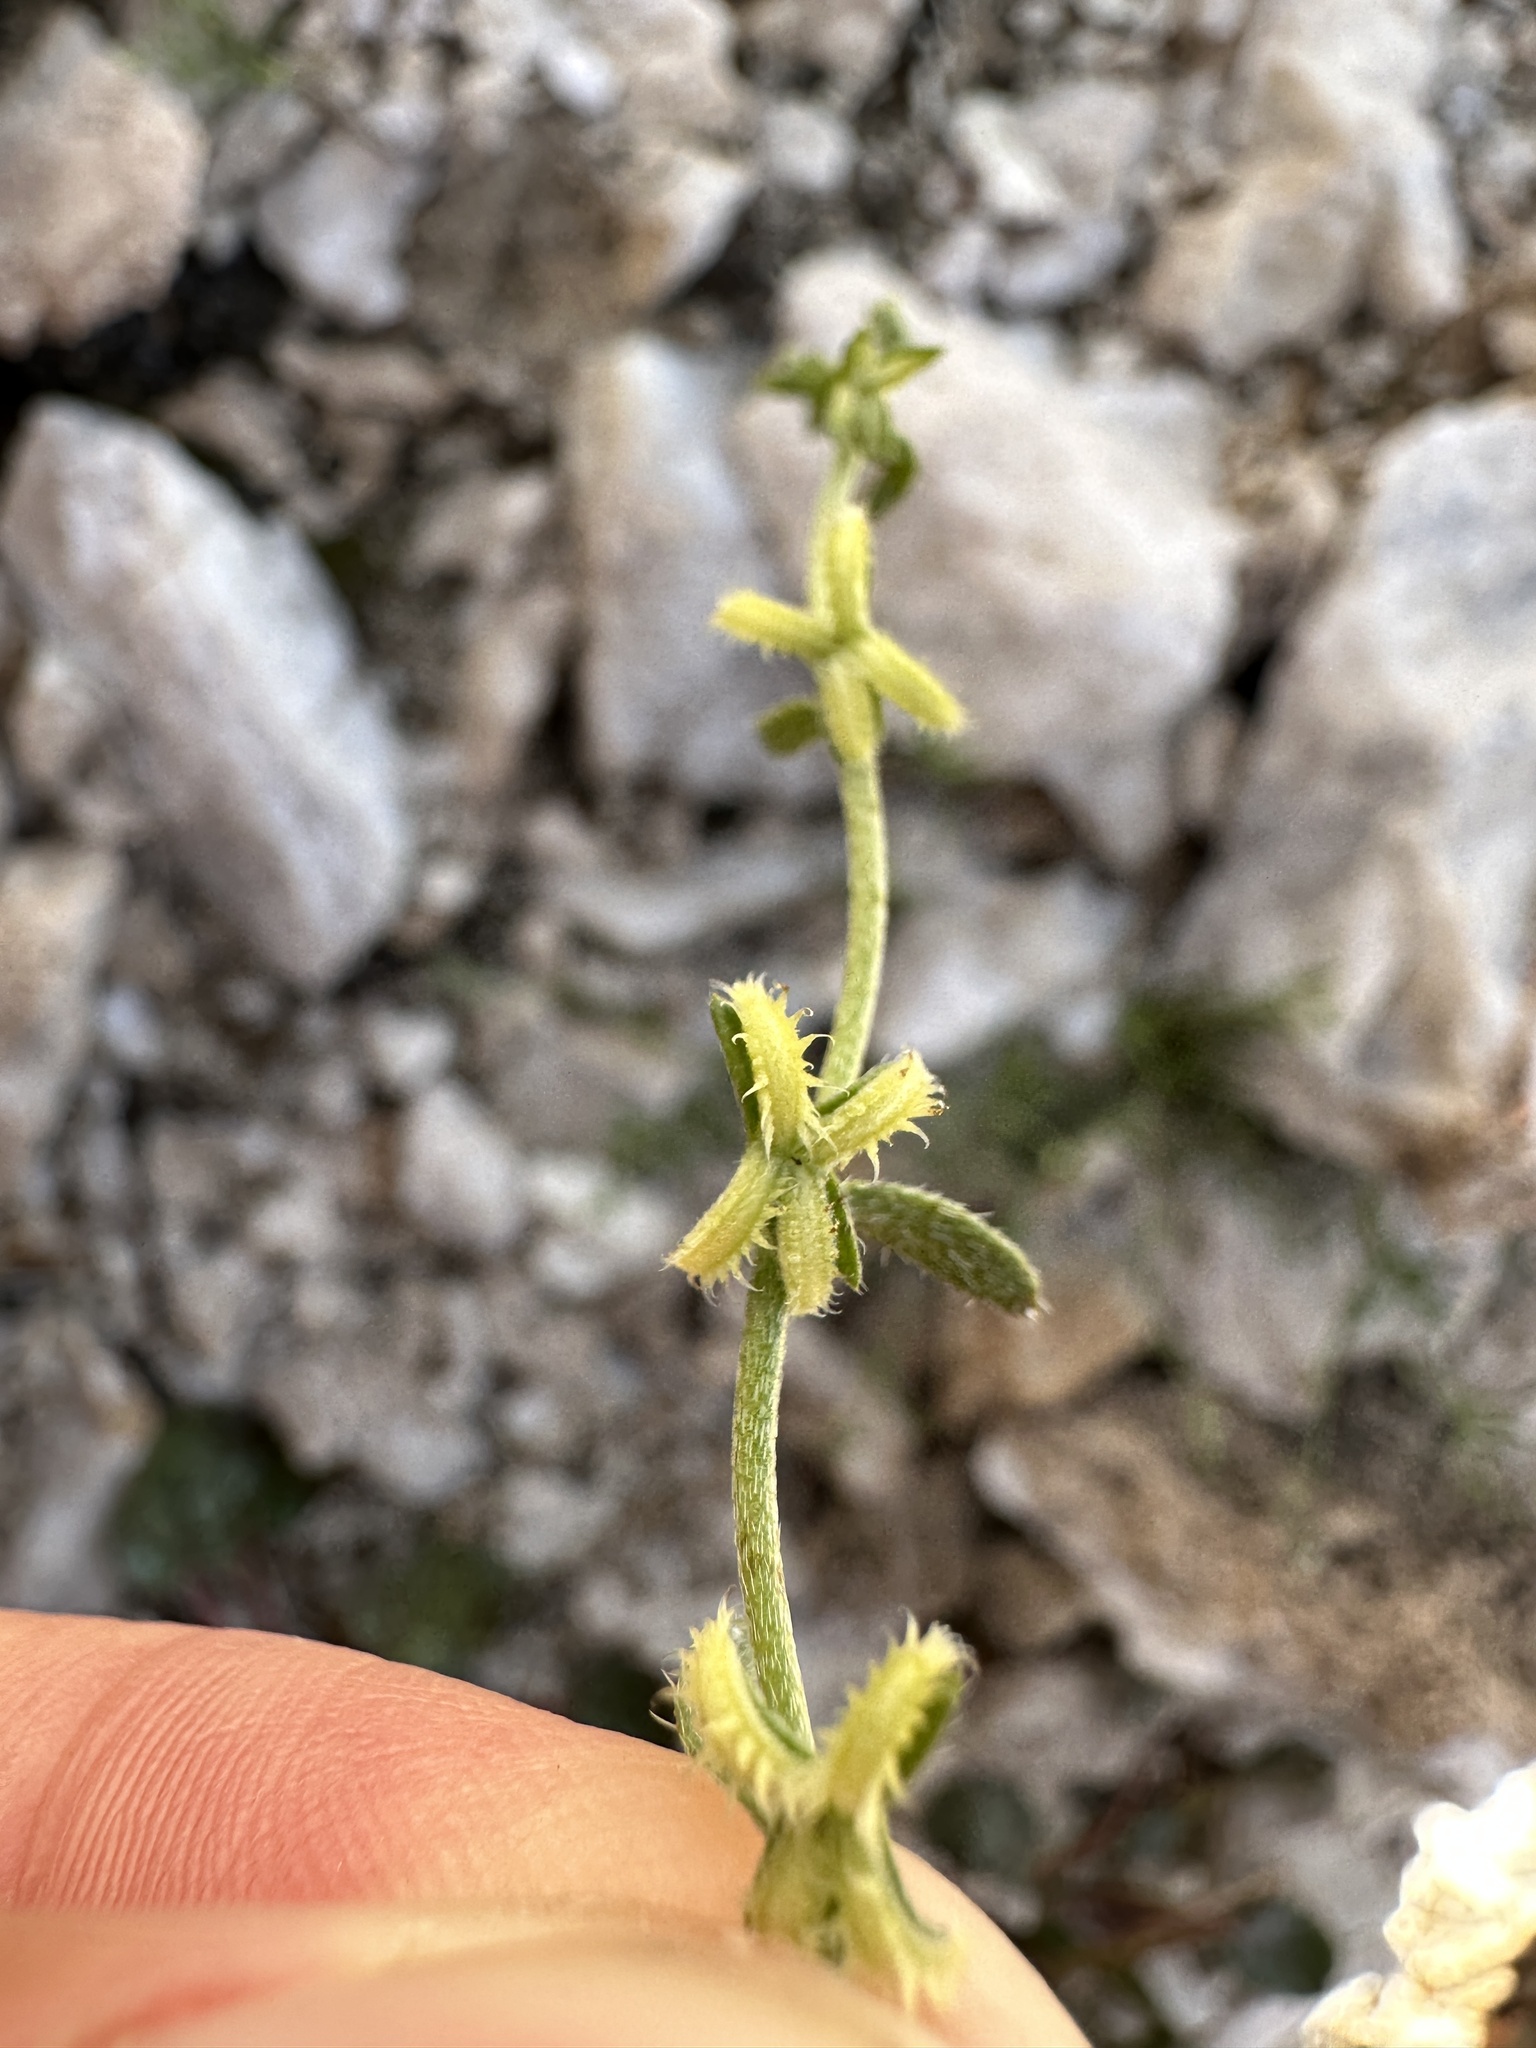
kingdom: Plantae
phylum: Tracheophyta
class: Magnoliopsida
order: Boraginales
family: Boraginaceae
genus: Pectocarya
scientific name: Pectocarya recurvata
